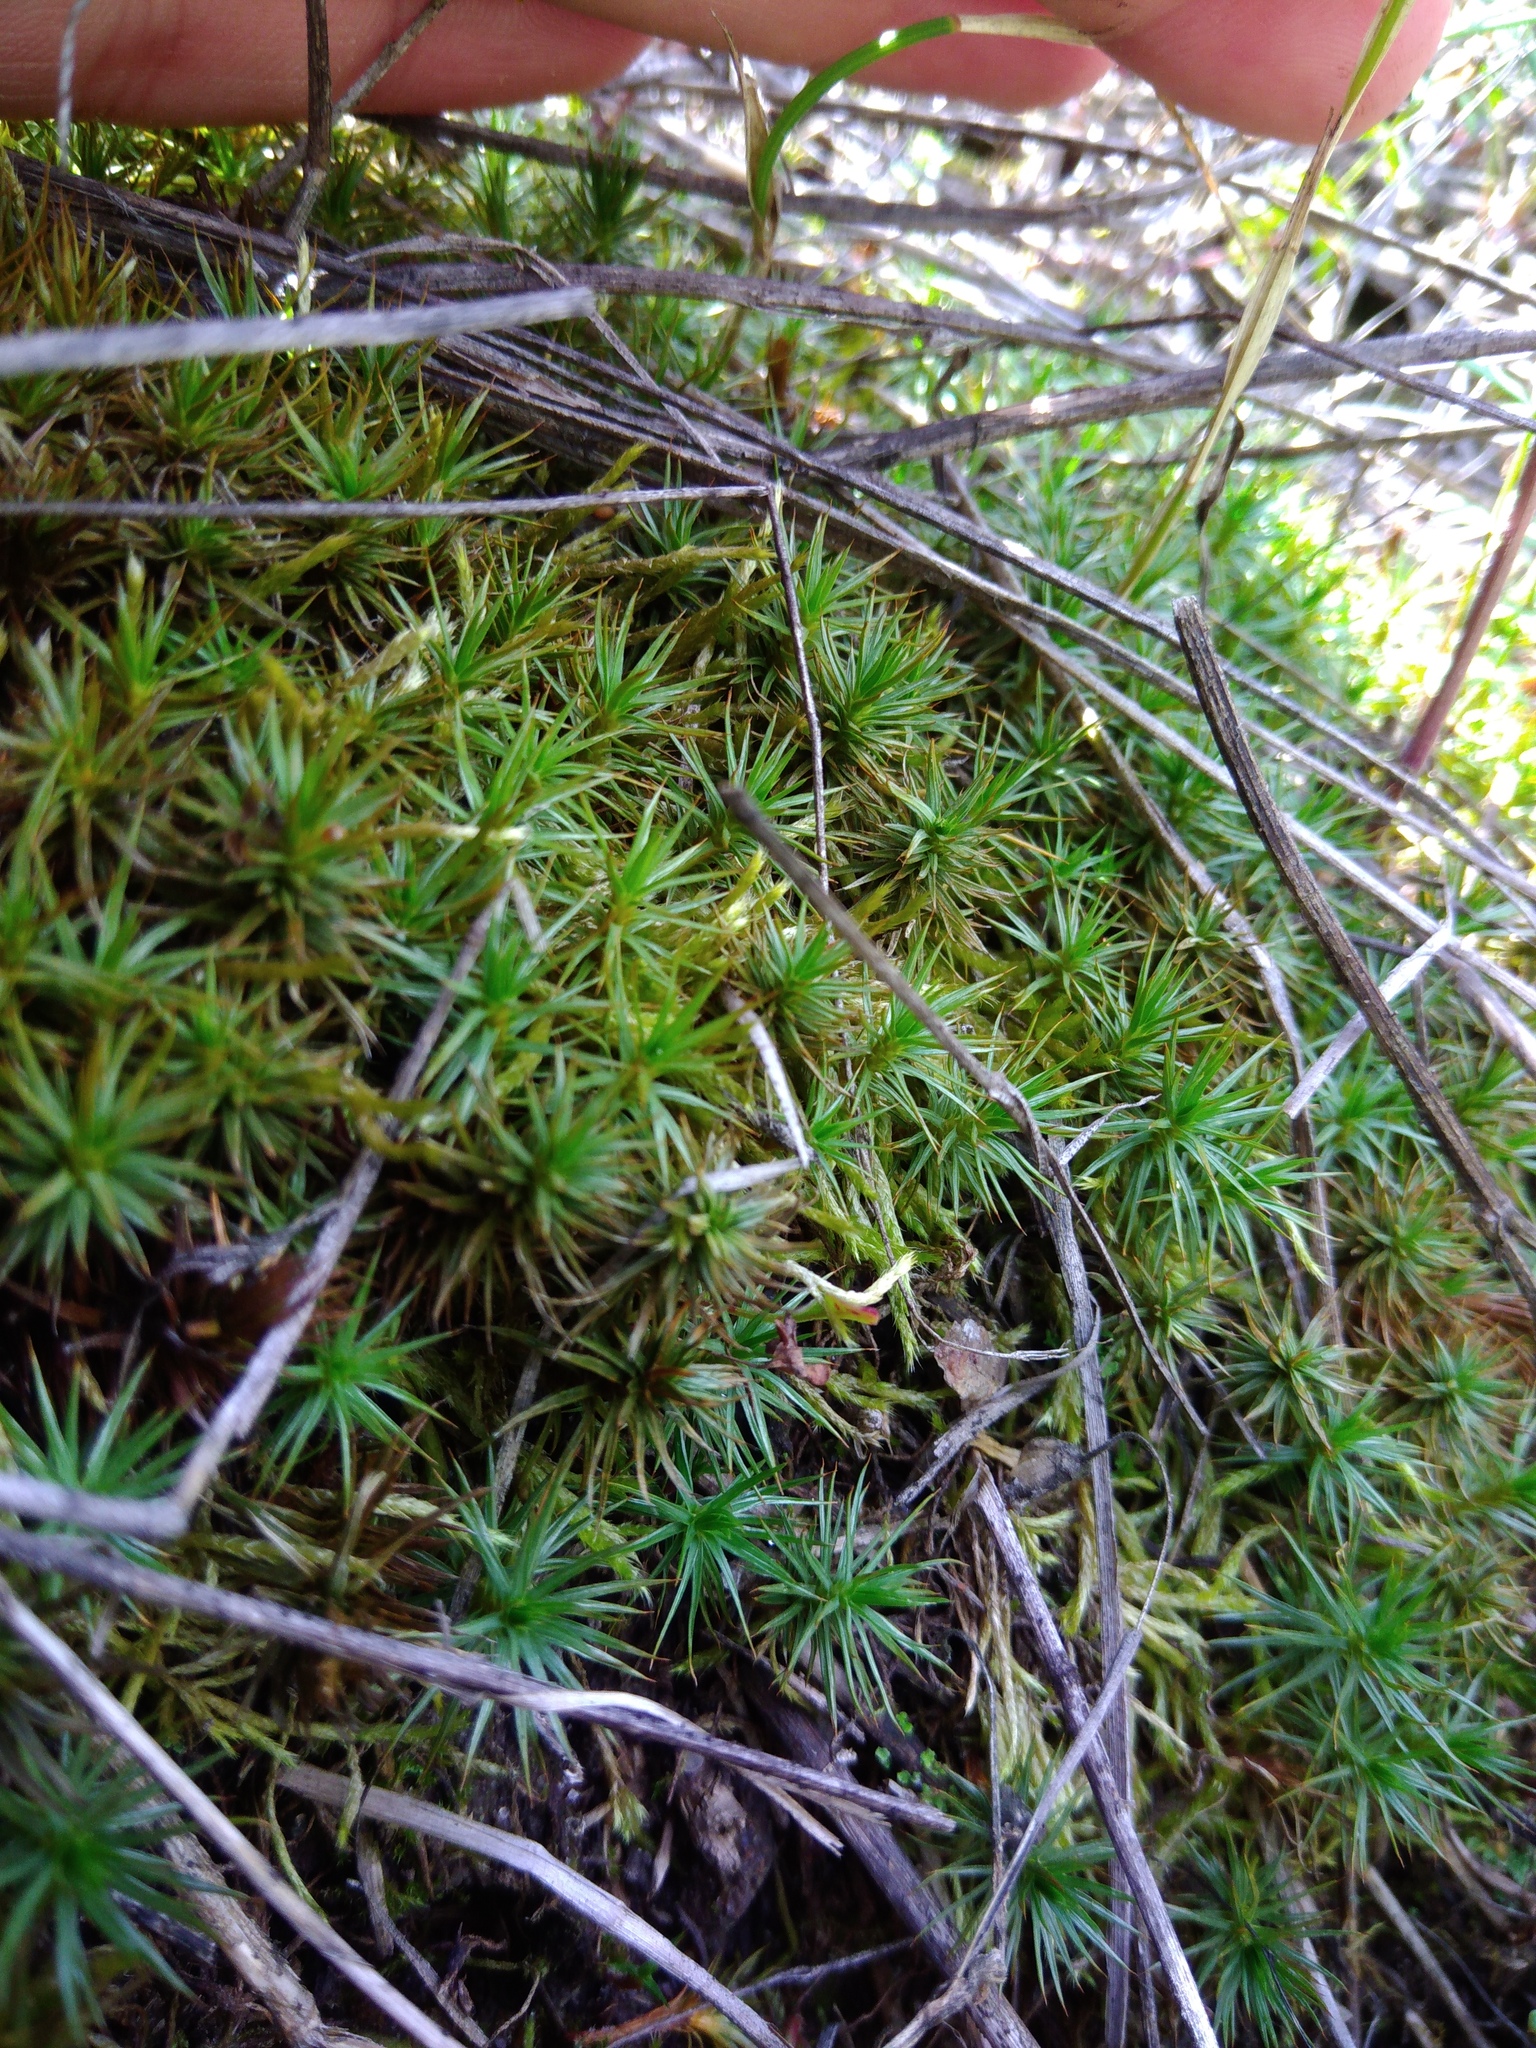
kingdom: Plantae
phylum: Bryophyta
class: Polytrichopsida
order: Polytrichales
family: Polytrichaceae
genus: Polytrichum
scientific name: Polytrichum juniperinum
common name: Juniper haircap moss
